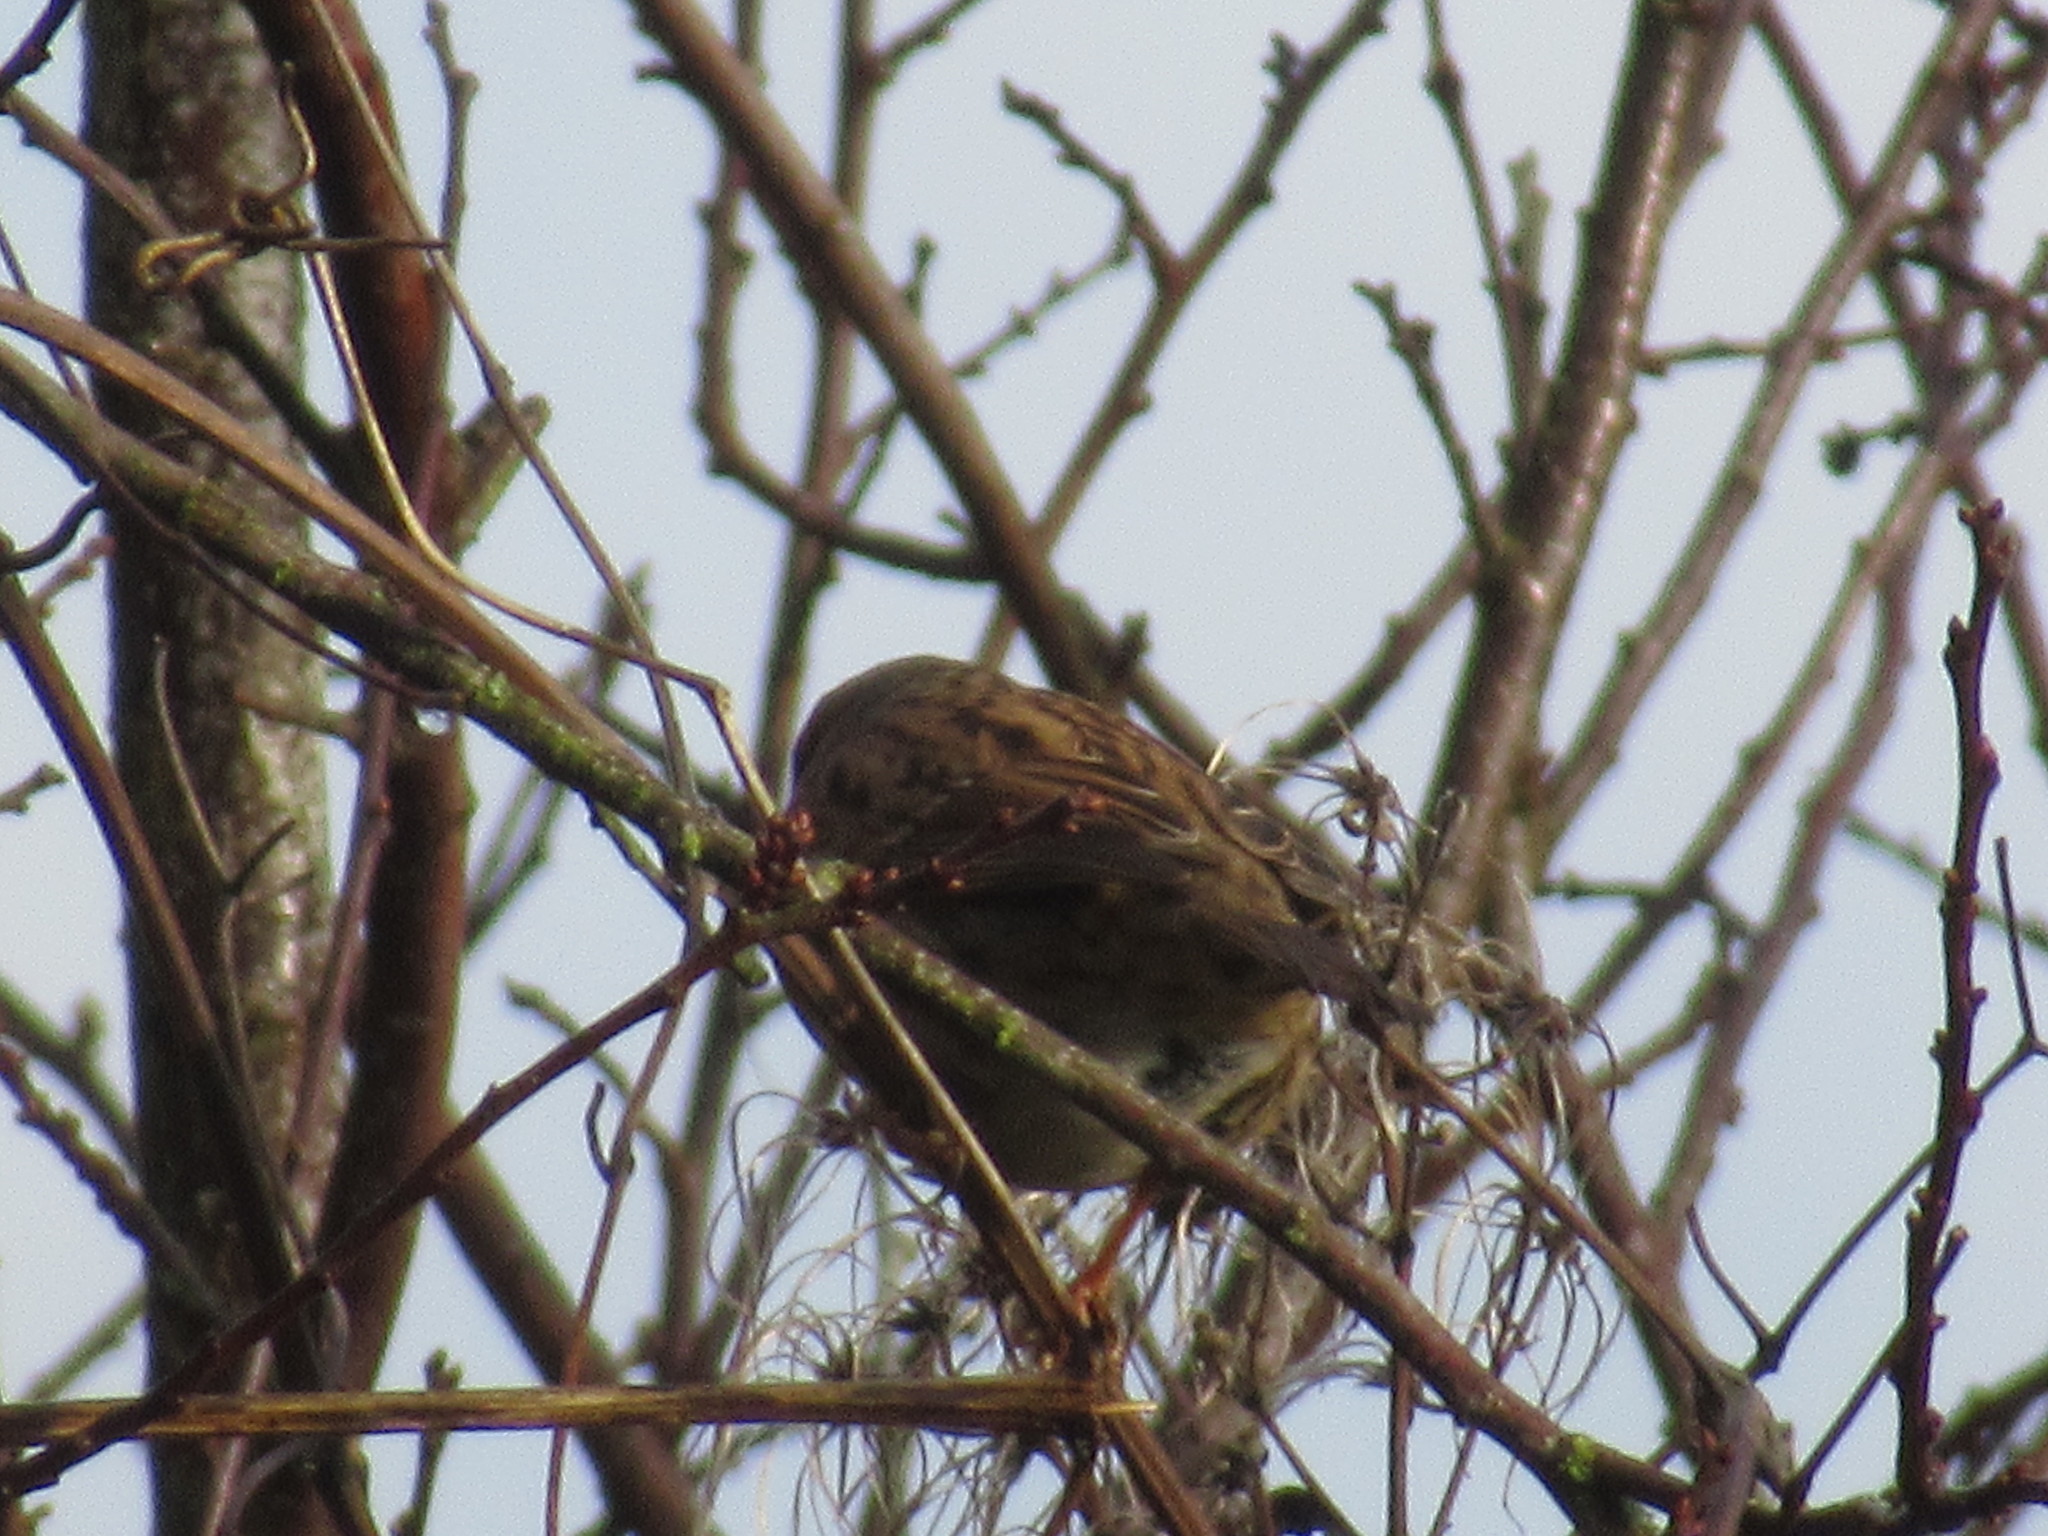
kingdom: Animalia
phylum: Chordata
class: Aves
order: Passeriformes
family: Prunellidae
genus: Prunella
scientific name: Prunella modularis
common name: Dunnock
